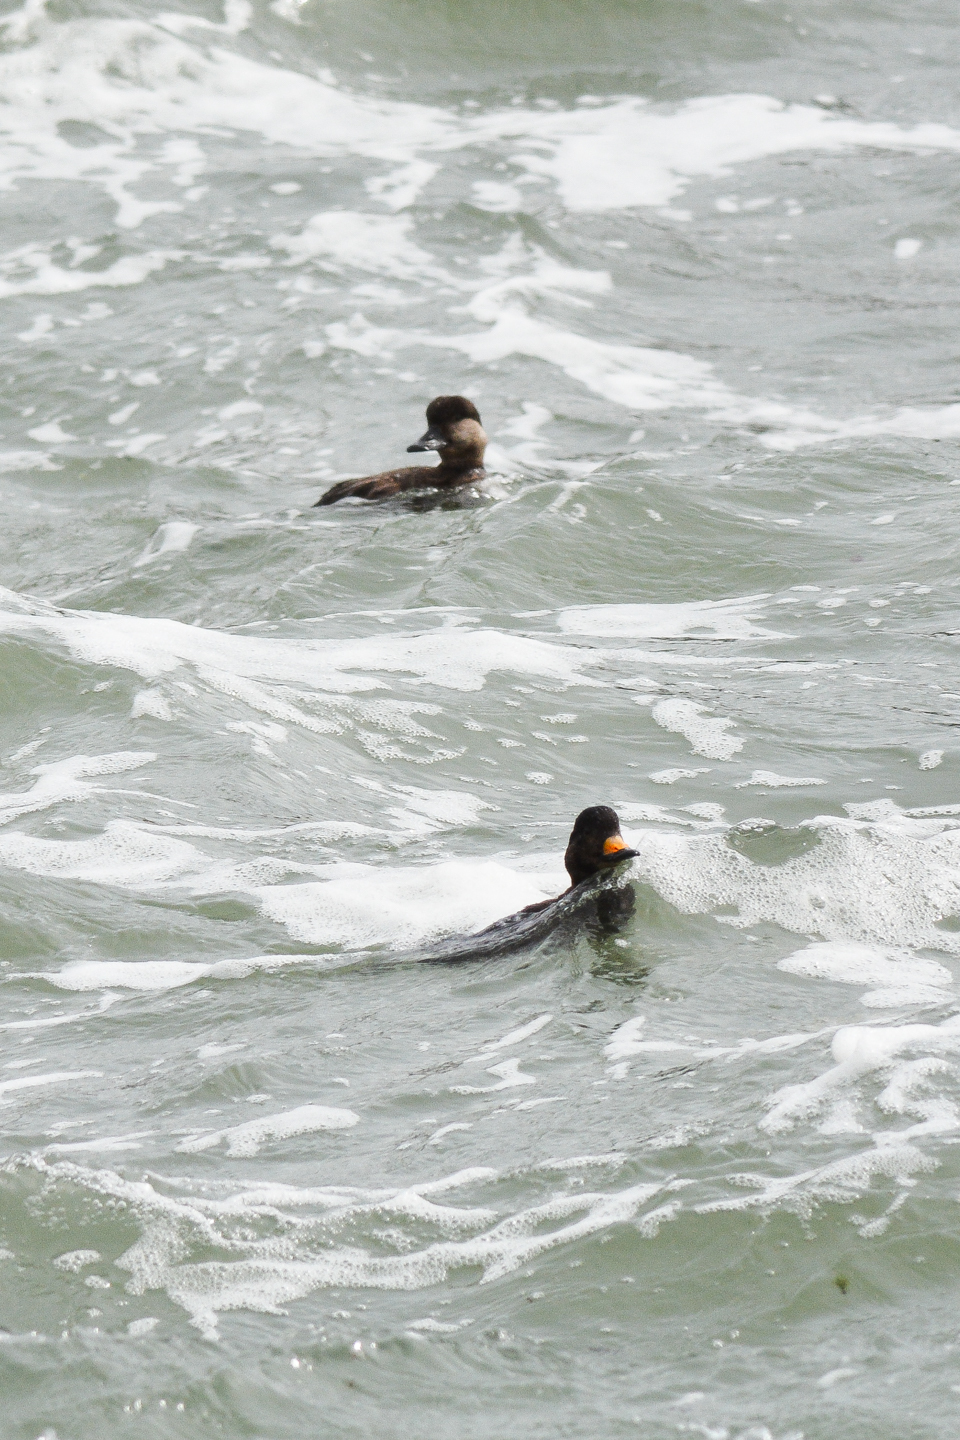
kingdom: Animalia
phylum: Chordata
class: Aves
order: Anseriformes
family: Anatidae
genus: Melanitta
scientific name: Melanitta americana
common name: Black scoter
